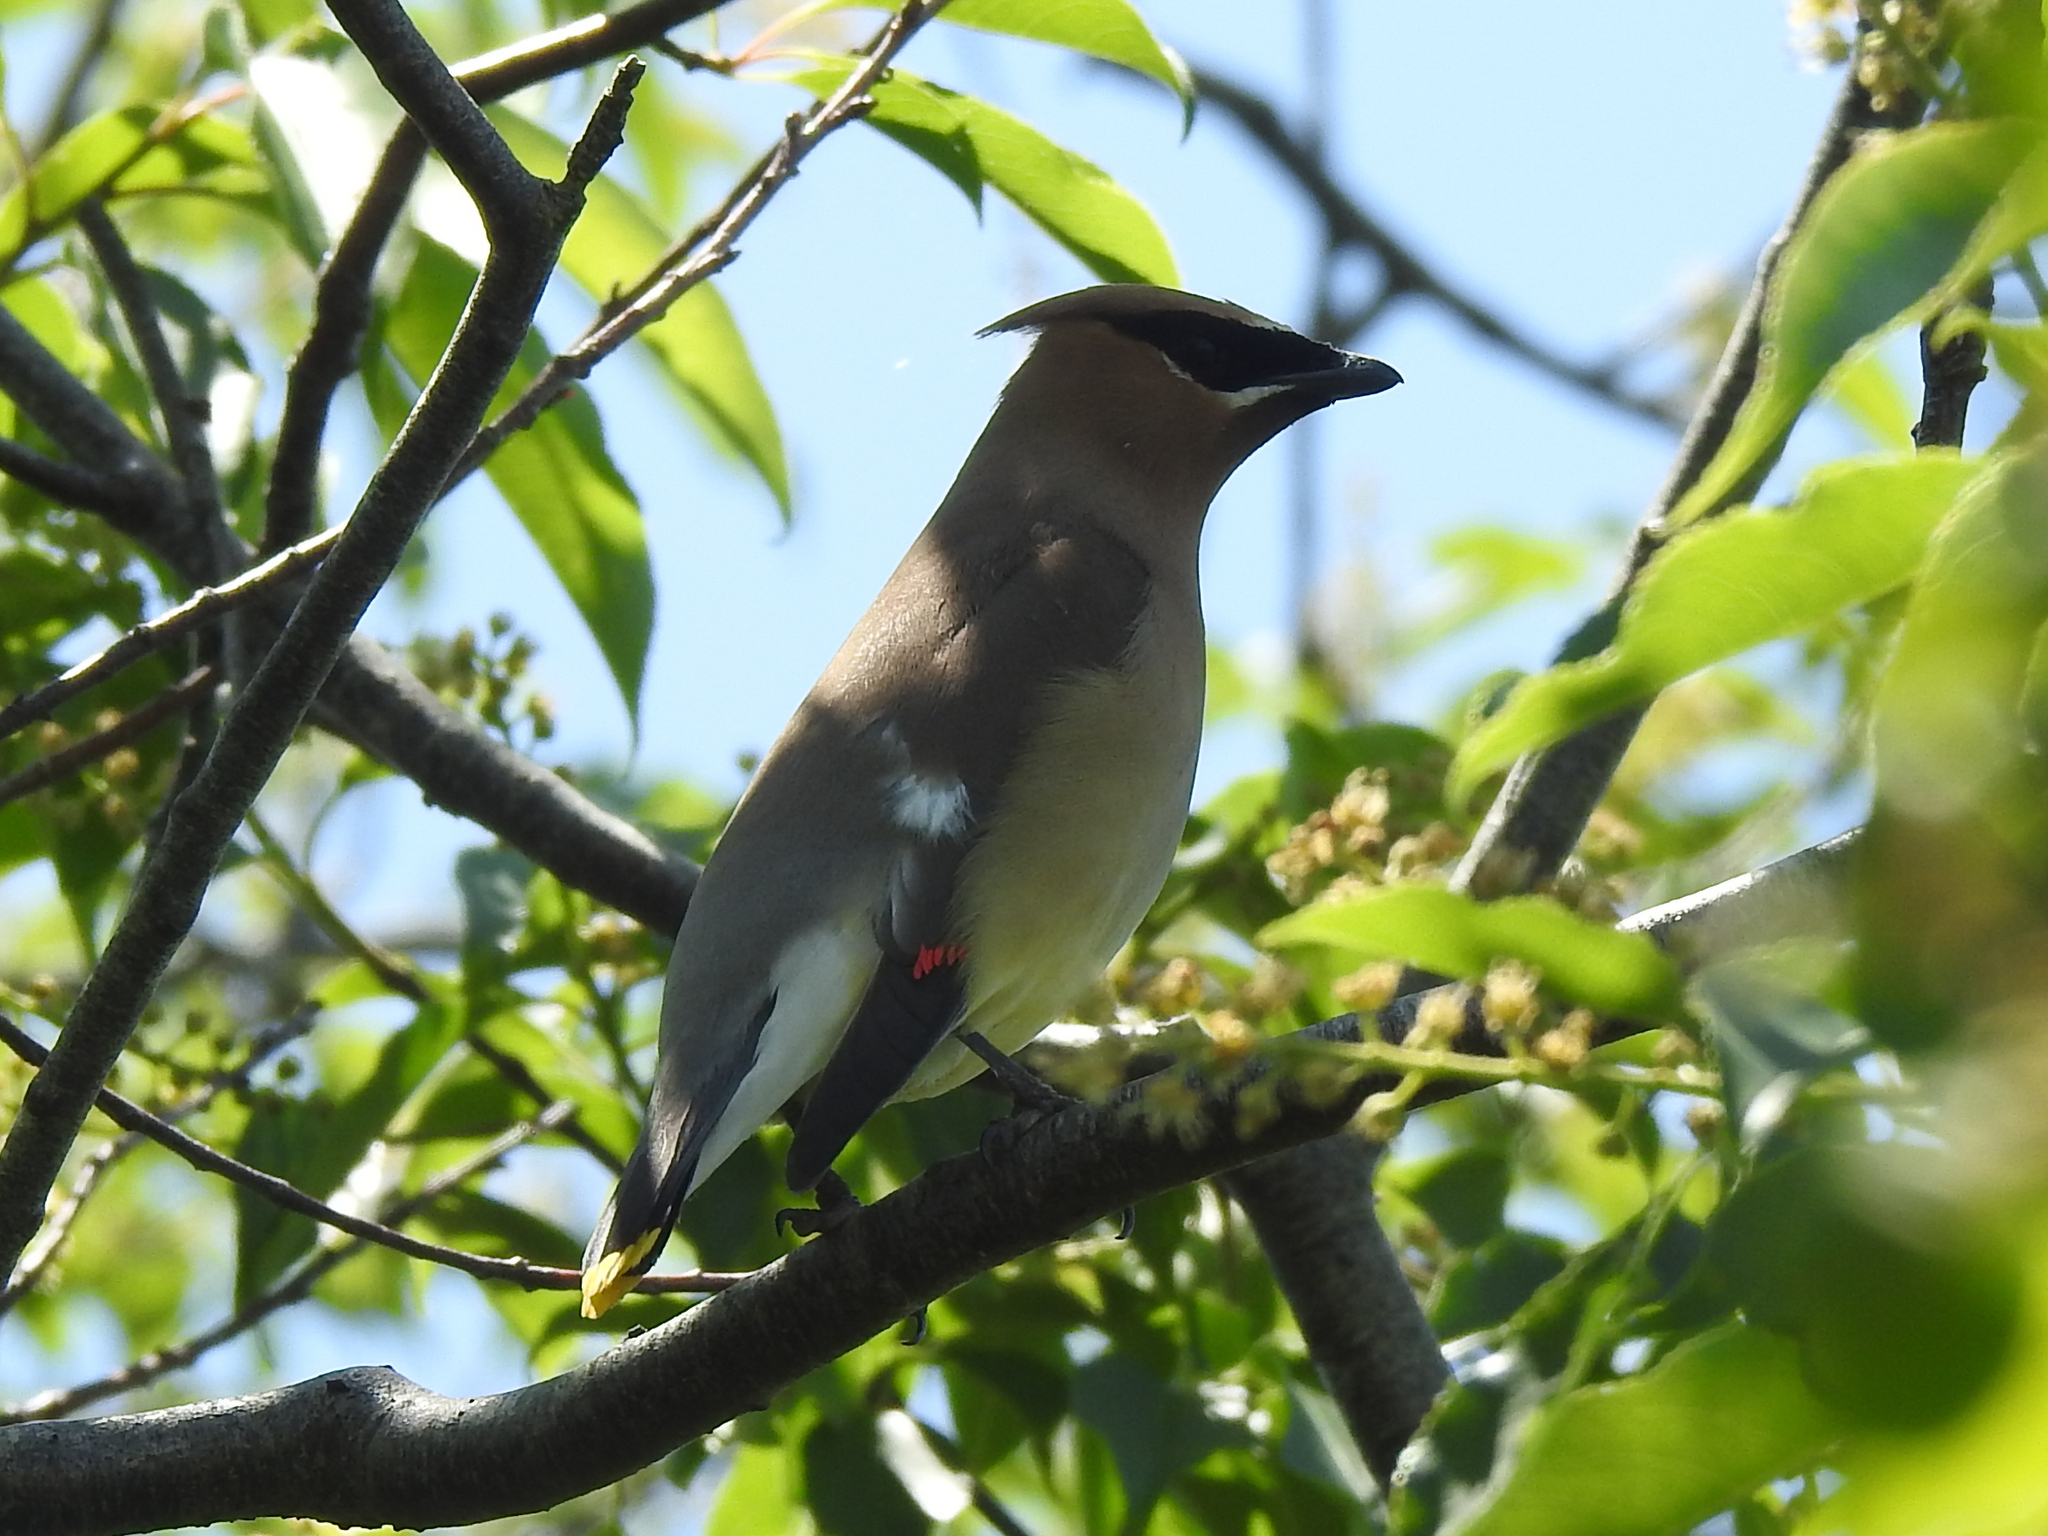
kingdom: Animalia
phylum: Chordata
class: Aves
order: Passeriformes
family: Bombycillidae
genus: Bombycilla
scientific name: Bombycilla cedrorum
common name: Cedar waxwing
